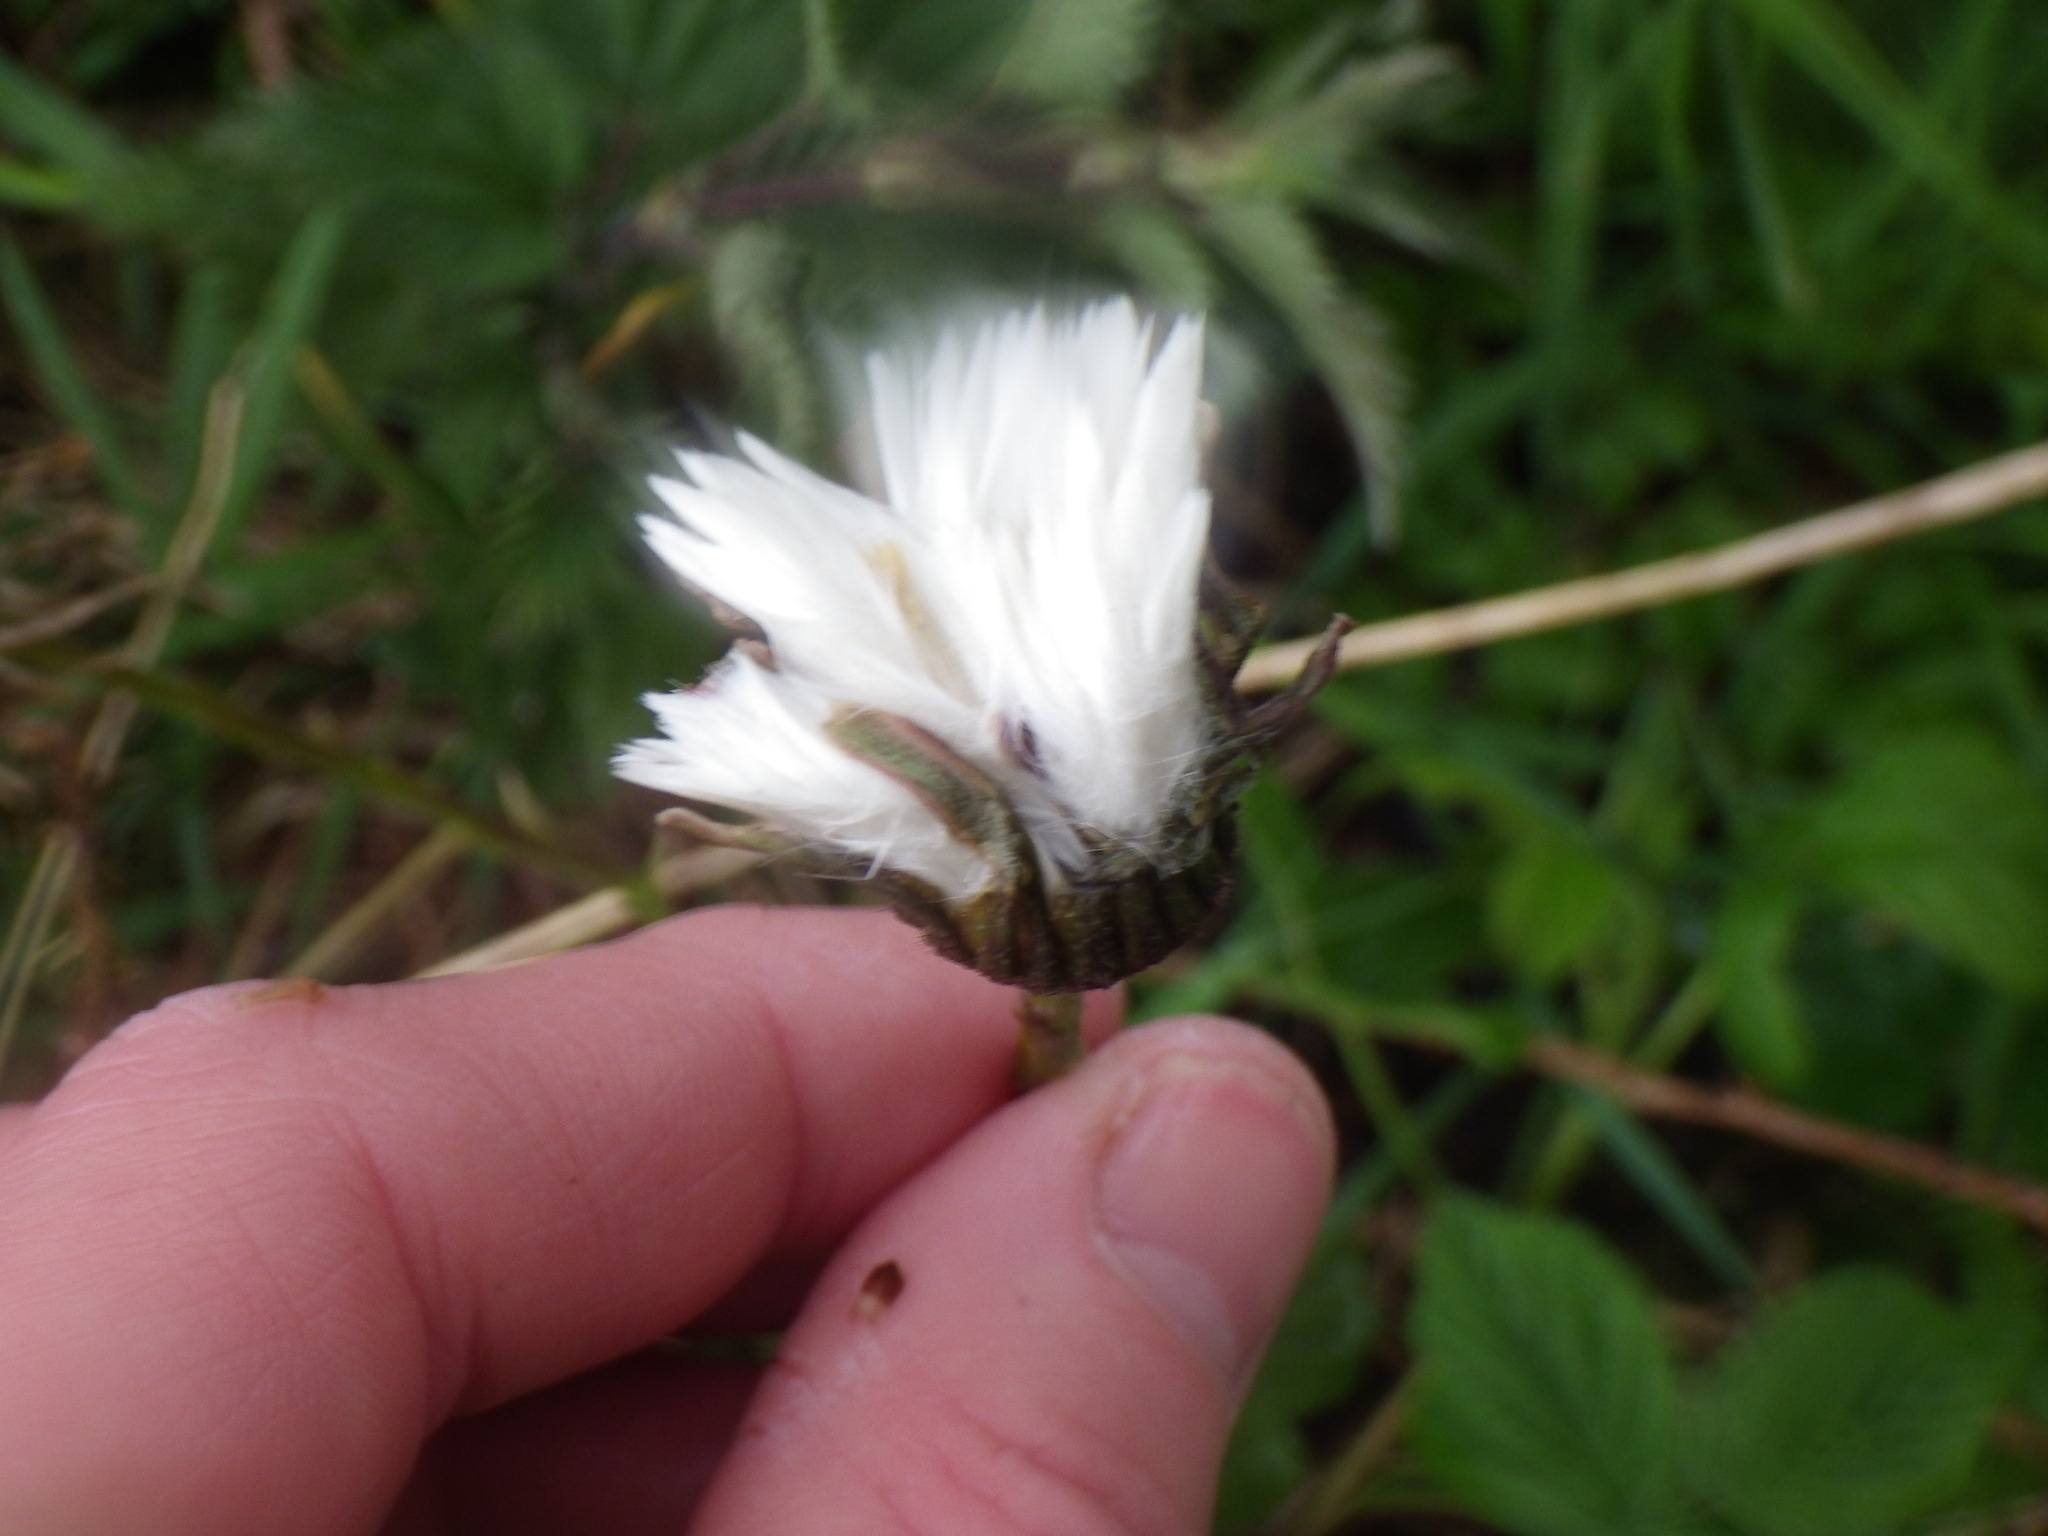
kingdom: Plantae
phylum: Tracheophyta
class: Magnoliopsida
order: Asterales
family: Asteraceae
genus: Tussilago
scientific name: Tussilago farfara
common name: Coltsfoot
